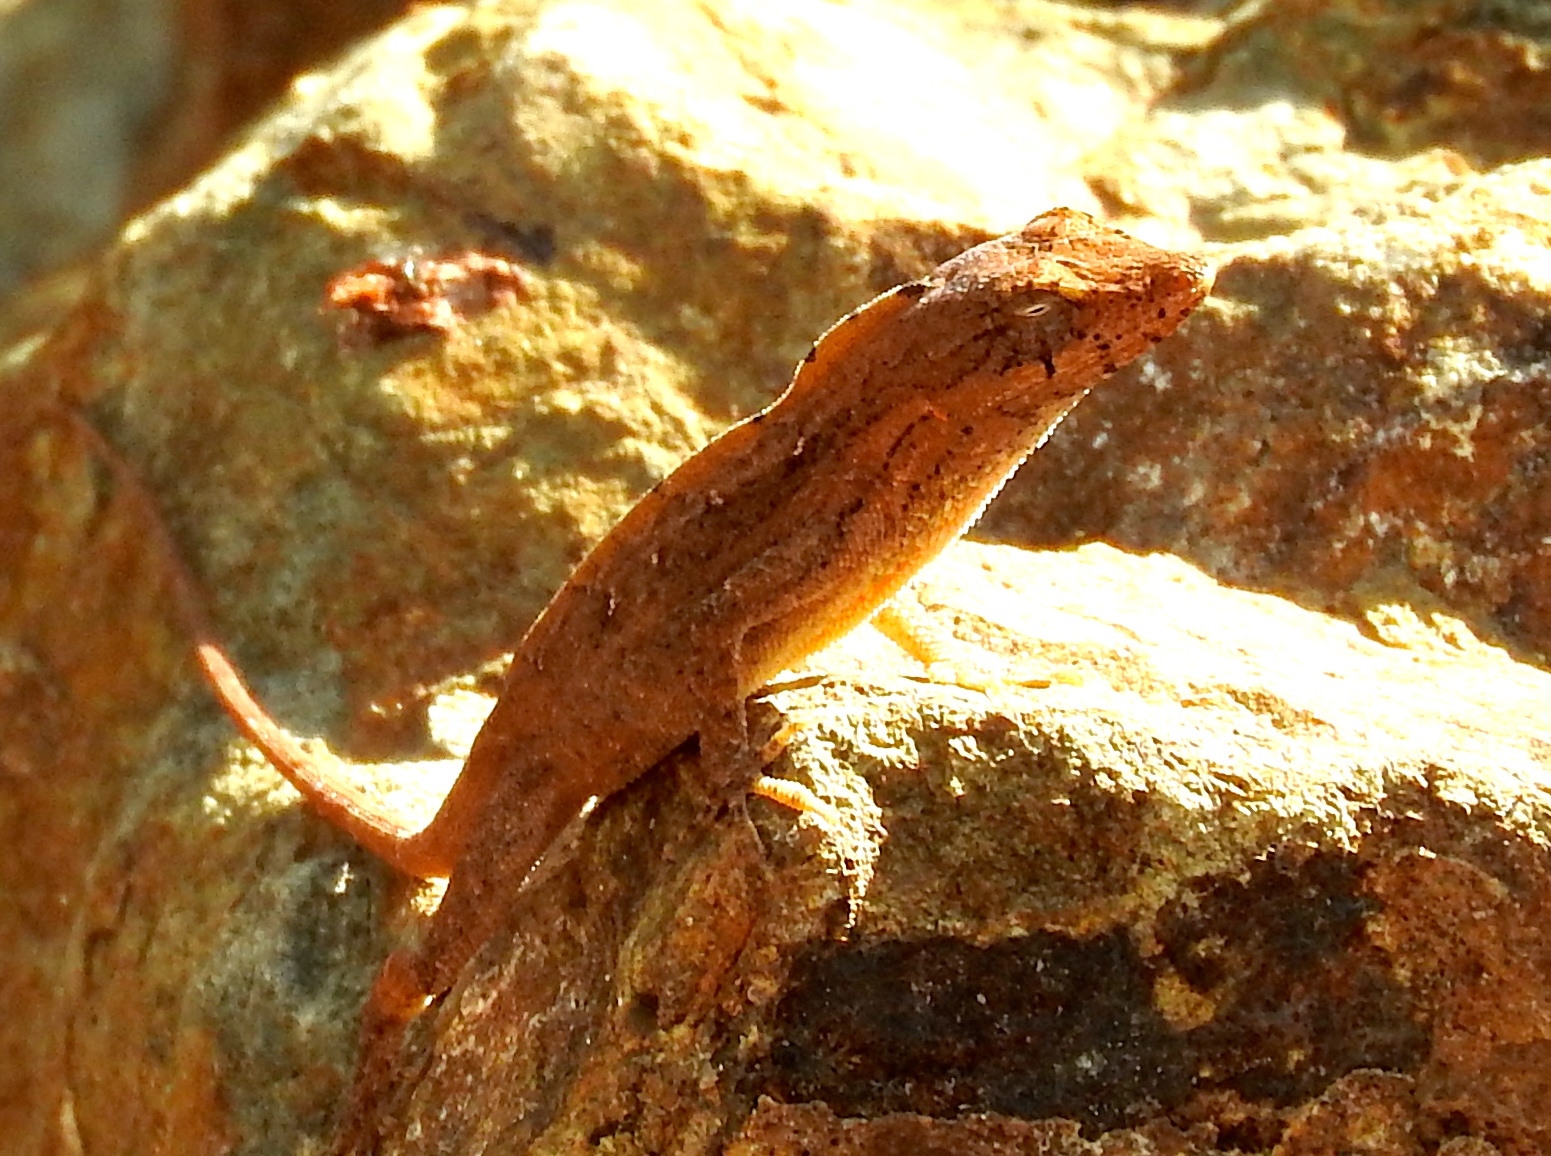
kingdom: Animalia
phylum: Chordata
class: Squamata
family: Dactyloidae
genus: Anolis
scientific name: Anolis nebulosus
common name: Clouded anole
